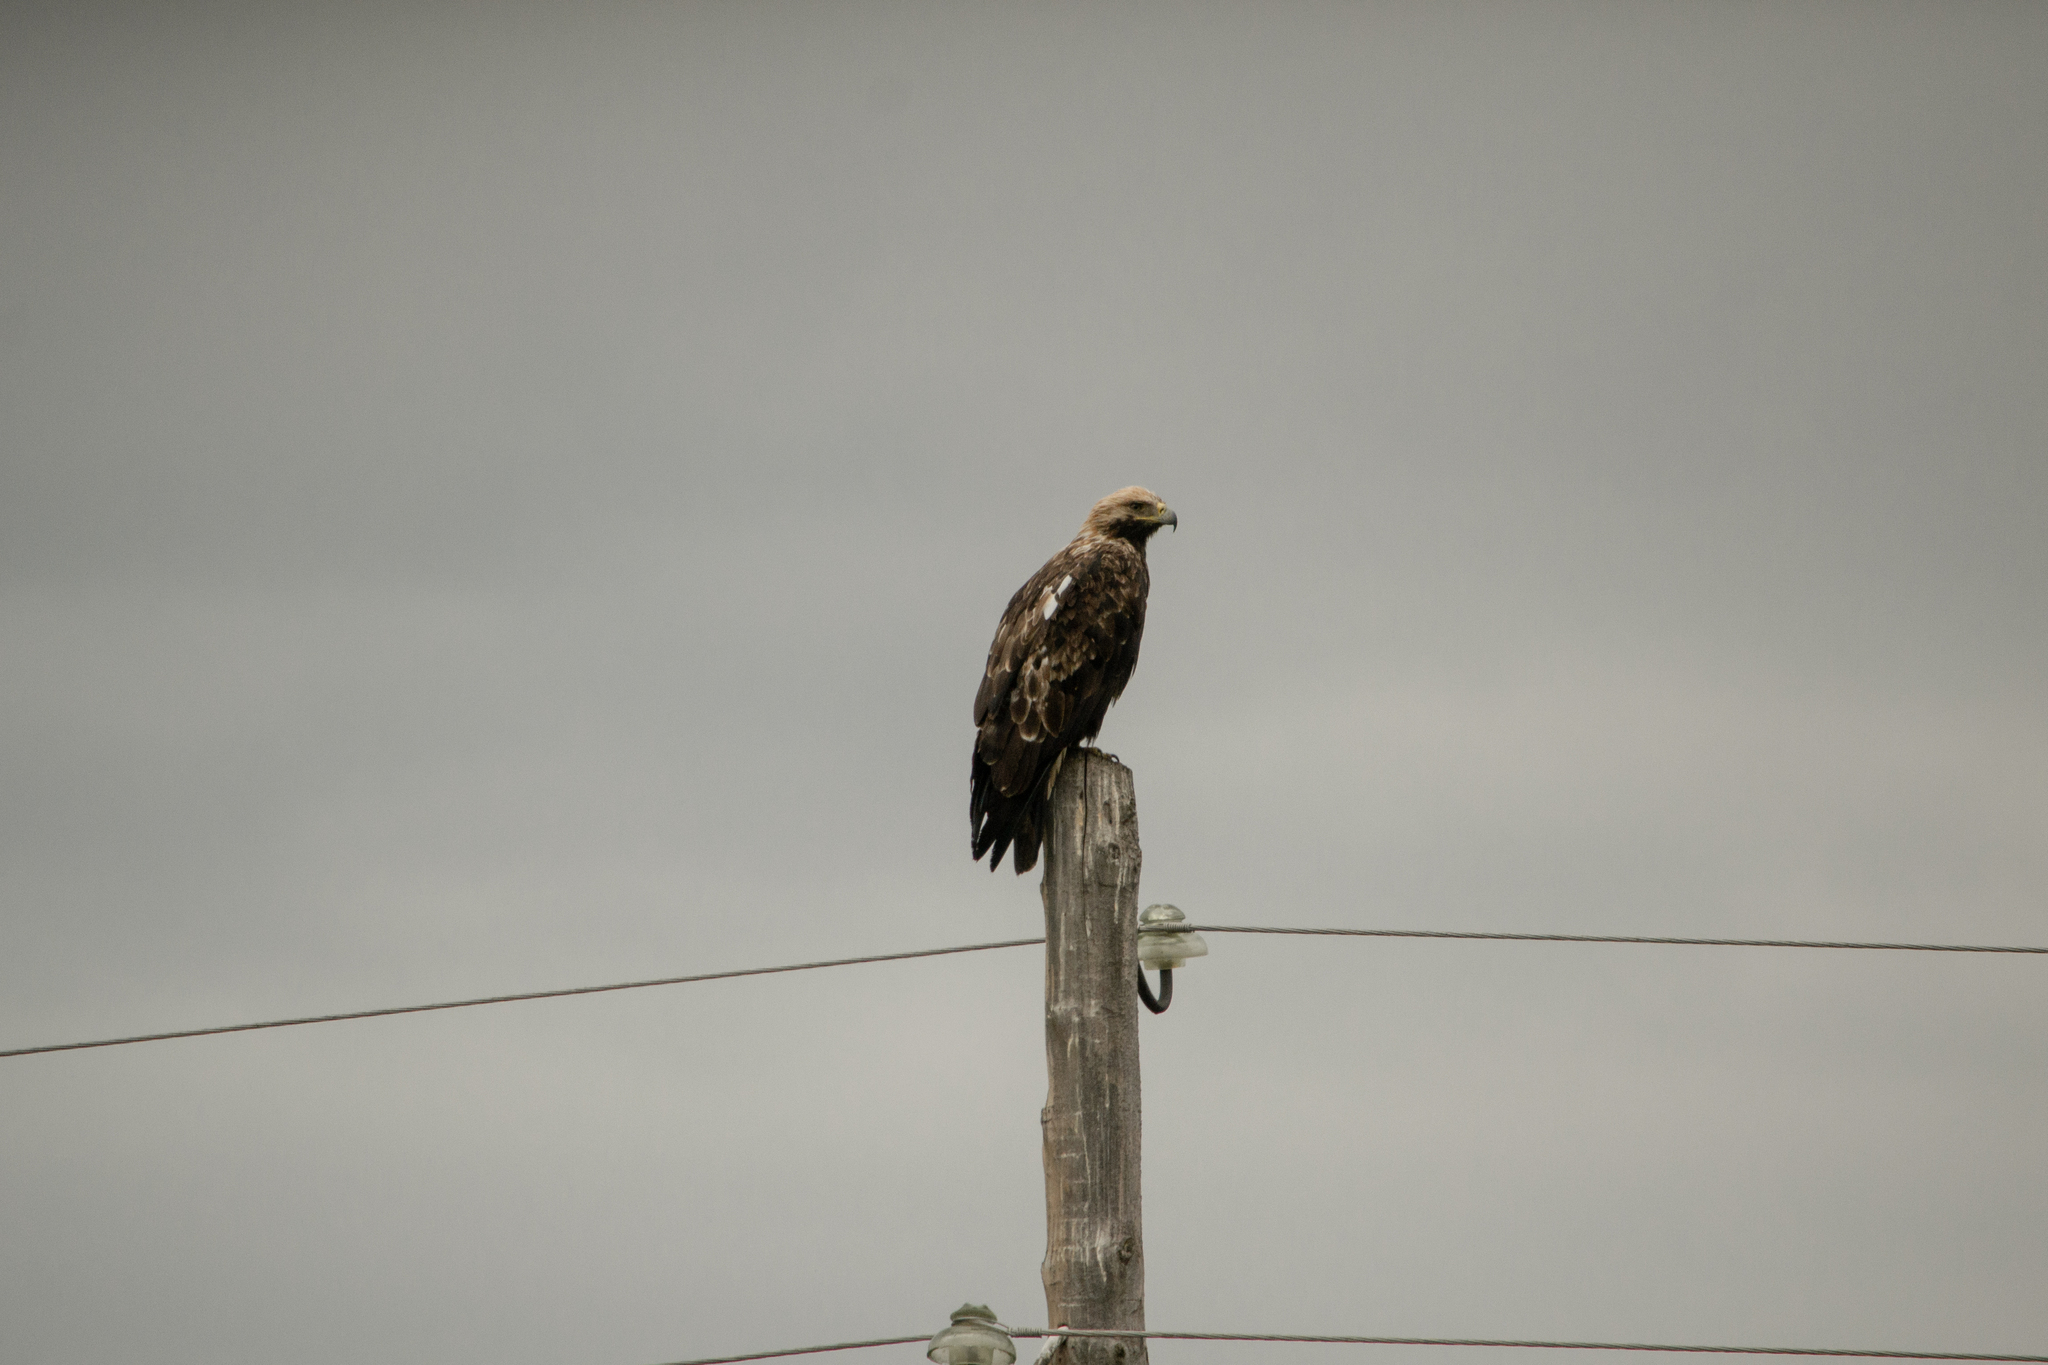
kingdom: Animalia
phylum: Chordata
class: Aves
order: Accipitriformes
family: Accipitridae
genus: Aquila
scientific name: Aquila heliaca
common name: Eastern imperial eagle
